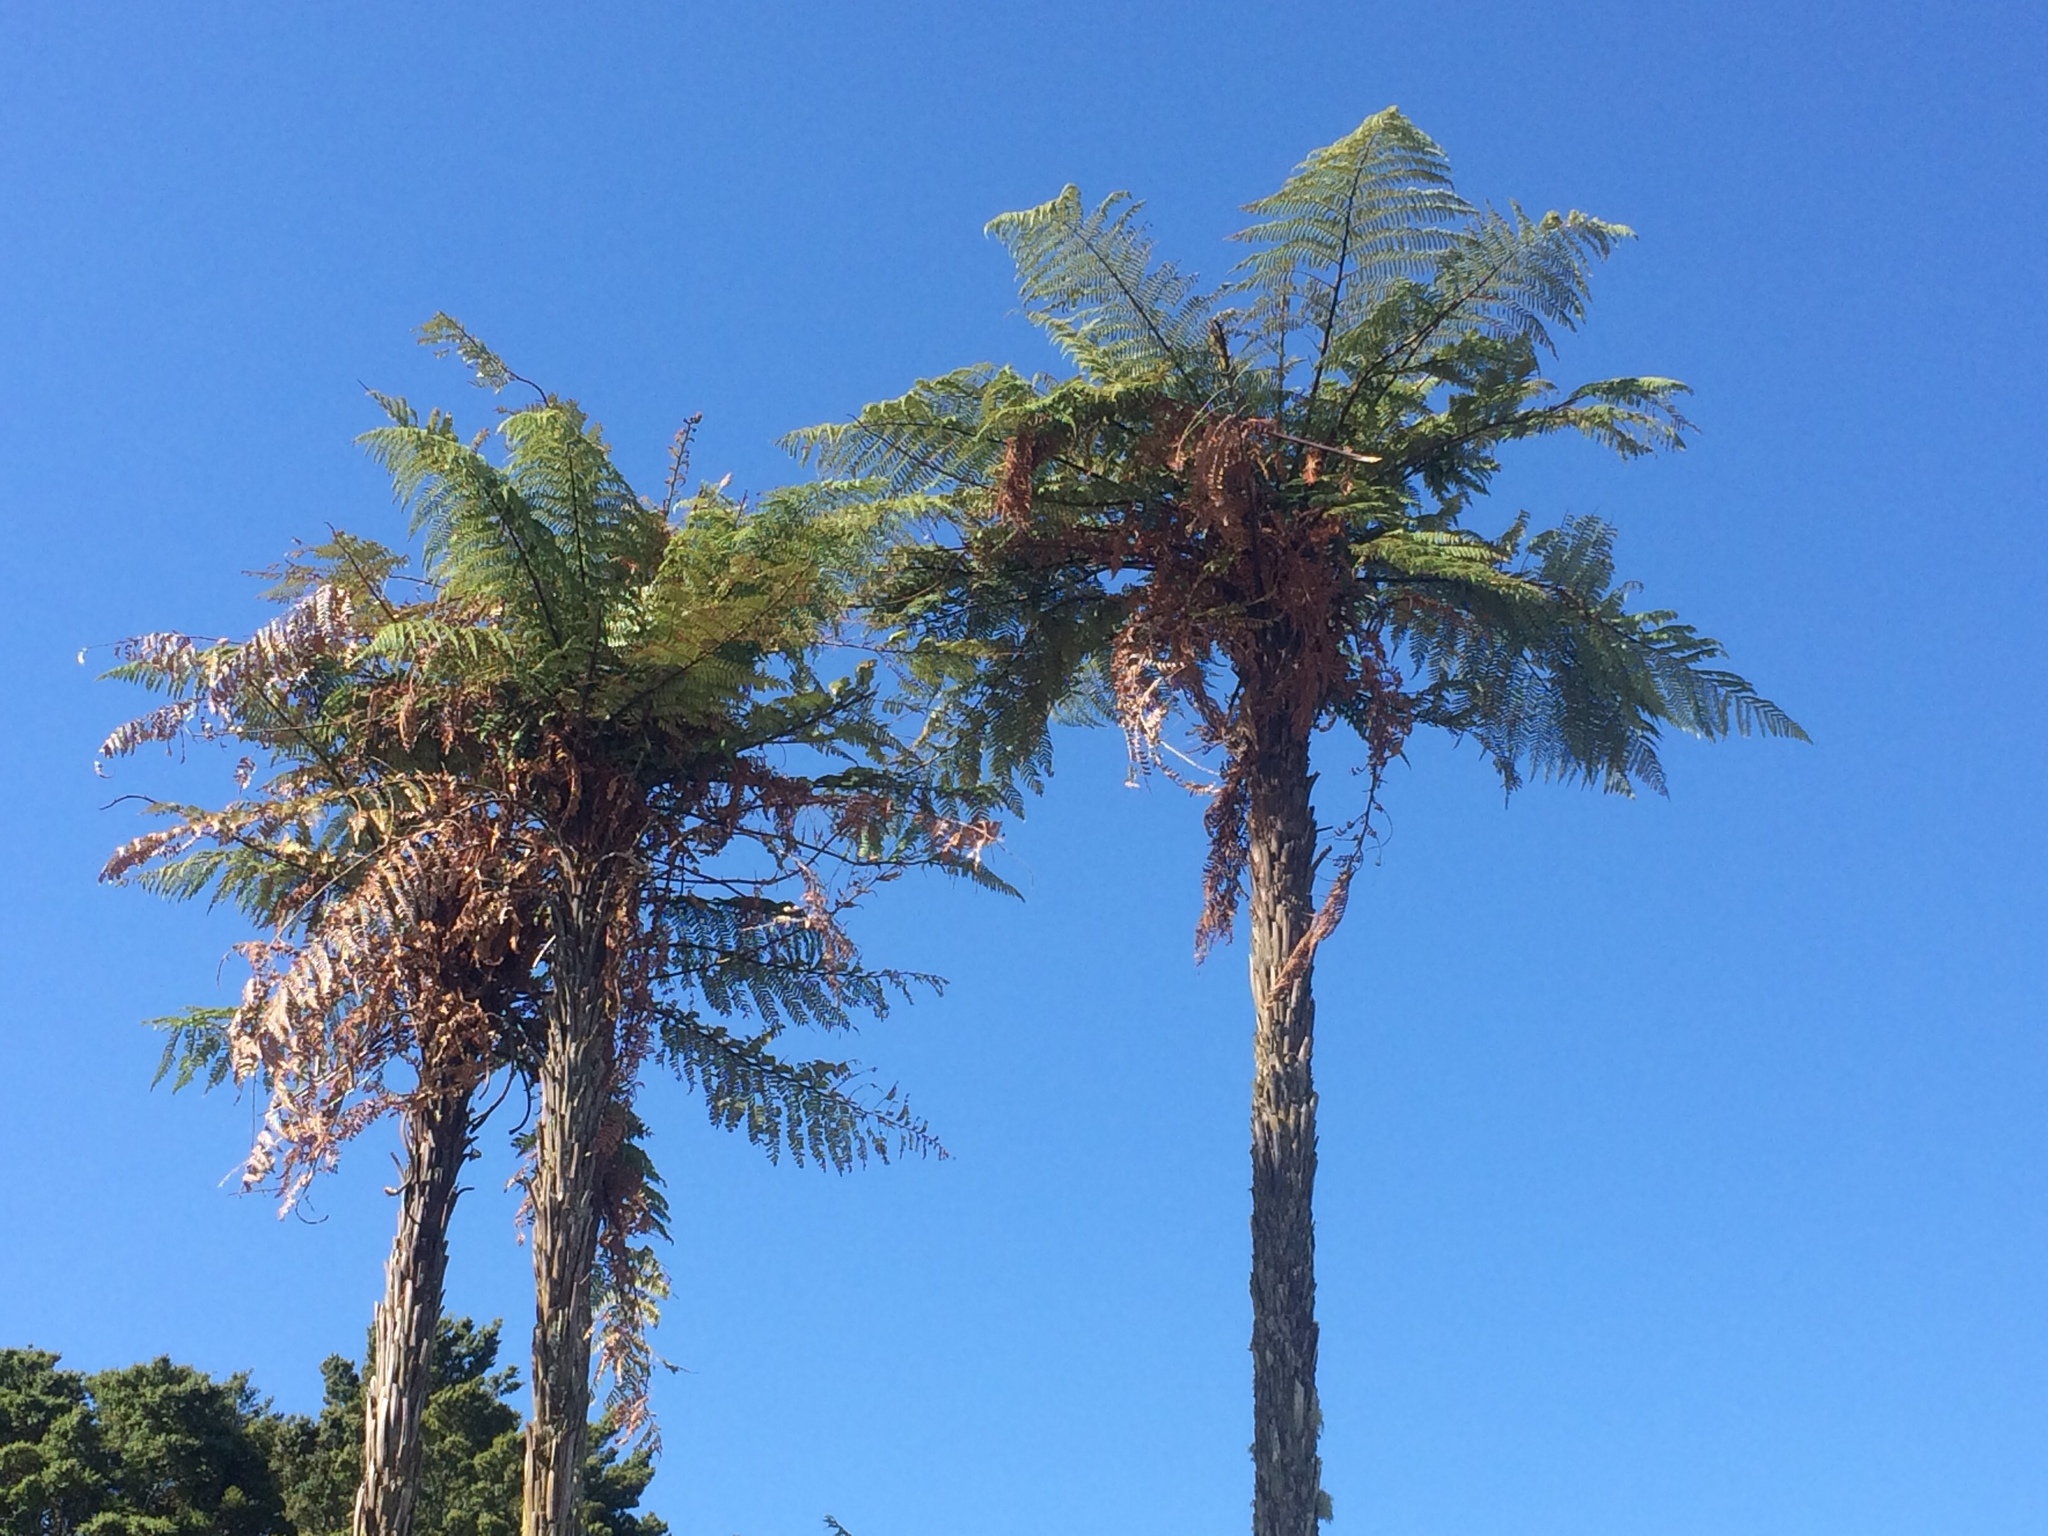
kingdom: Plantae
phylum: Tracheophyta
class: Polypodiopsida
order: Cyatheales
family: Dicksoniaceae
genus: Dicksonia
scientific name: Dicksonia squarrosa
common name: Hard treefern
